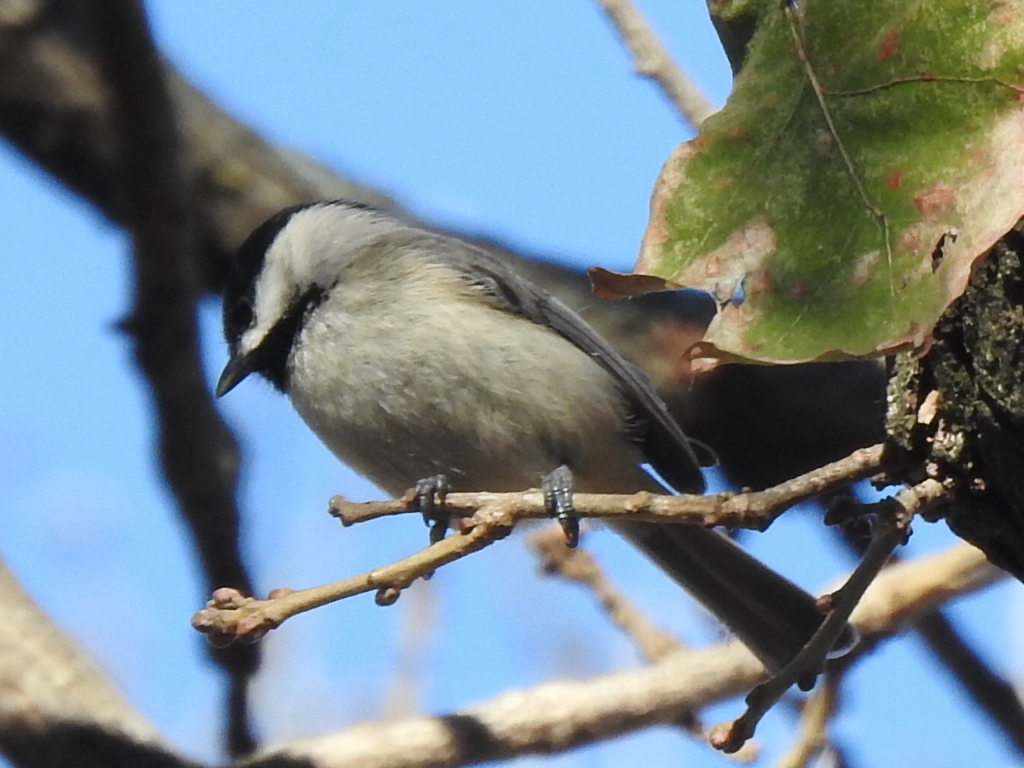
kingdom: Animalia
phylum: Chordata
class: Aves
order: Passeriformes
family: Paridae
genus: Poecile
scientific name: Poecile carolinensis
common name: Carolina chickadee
